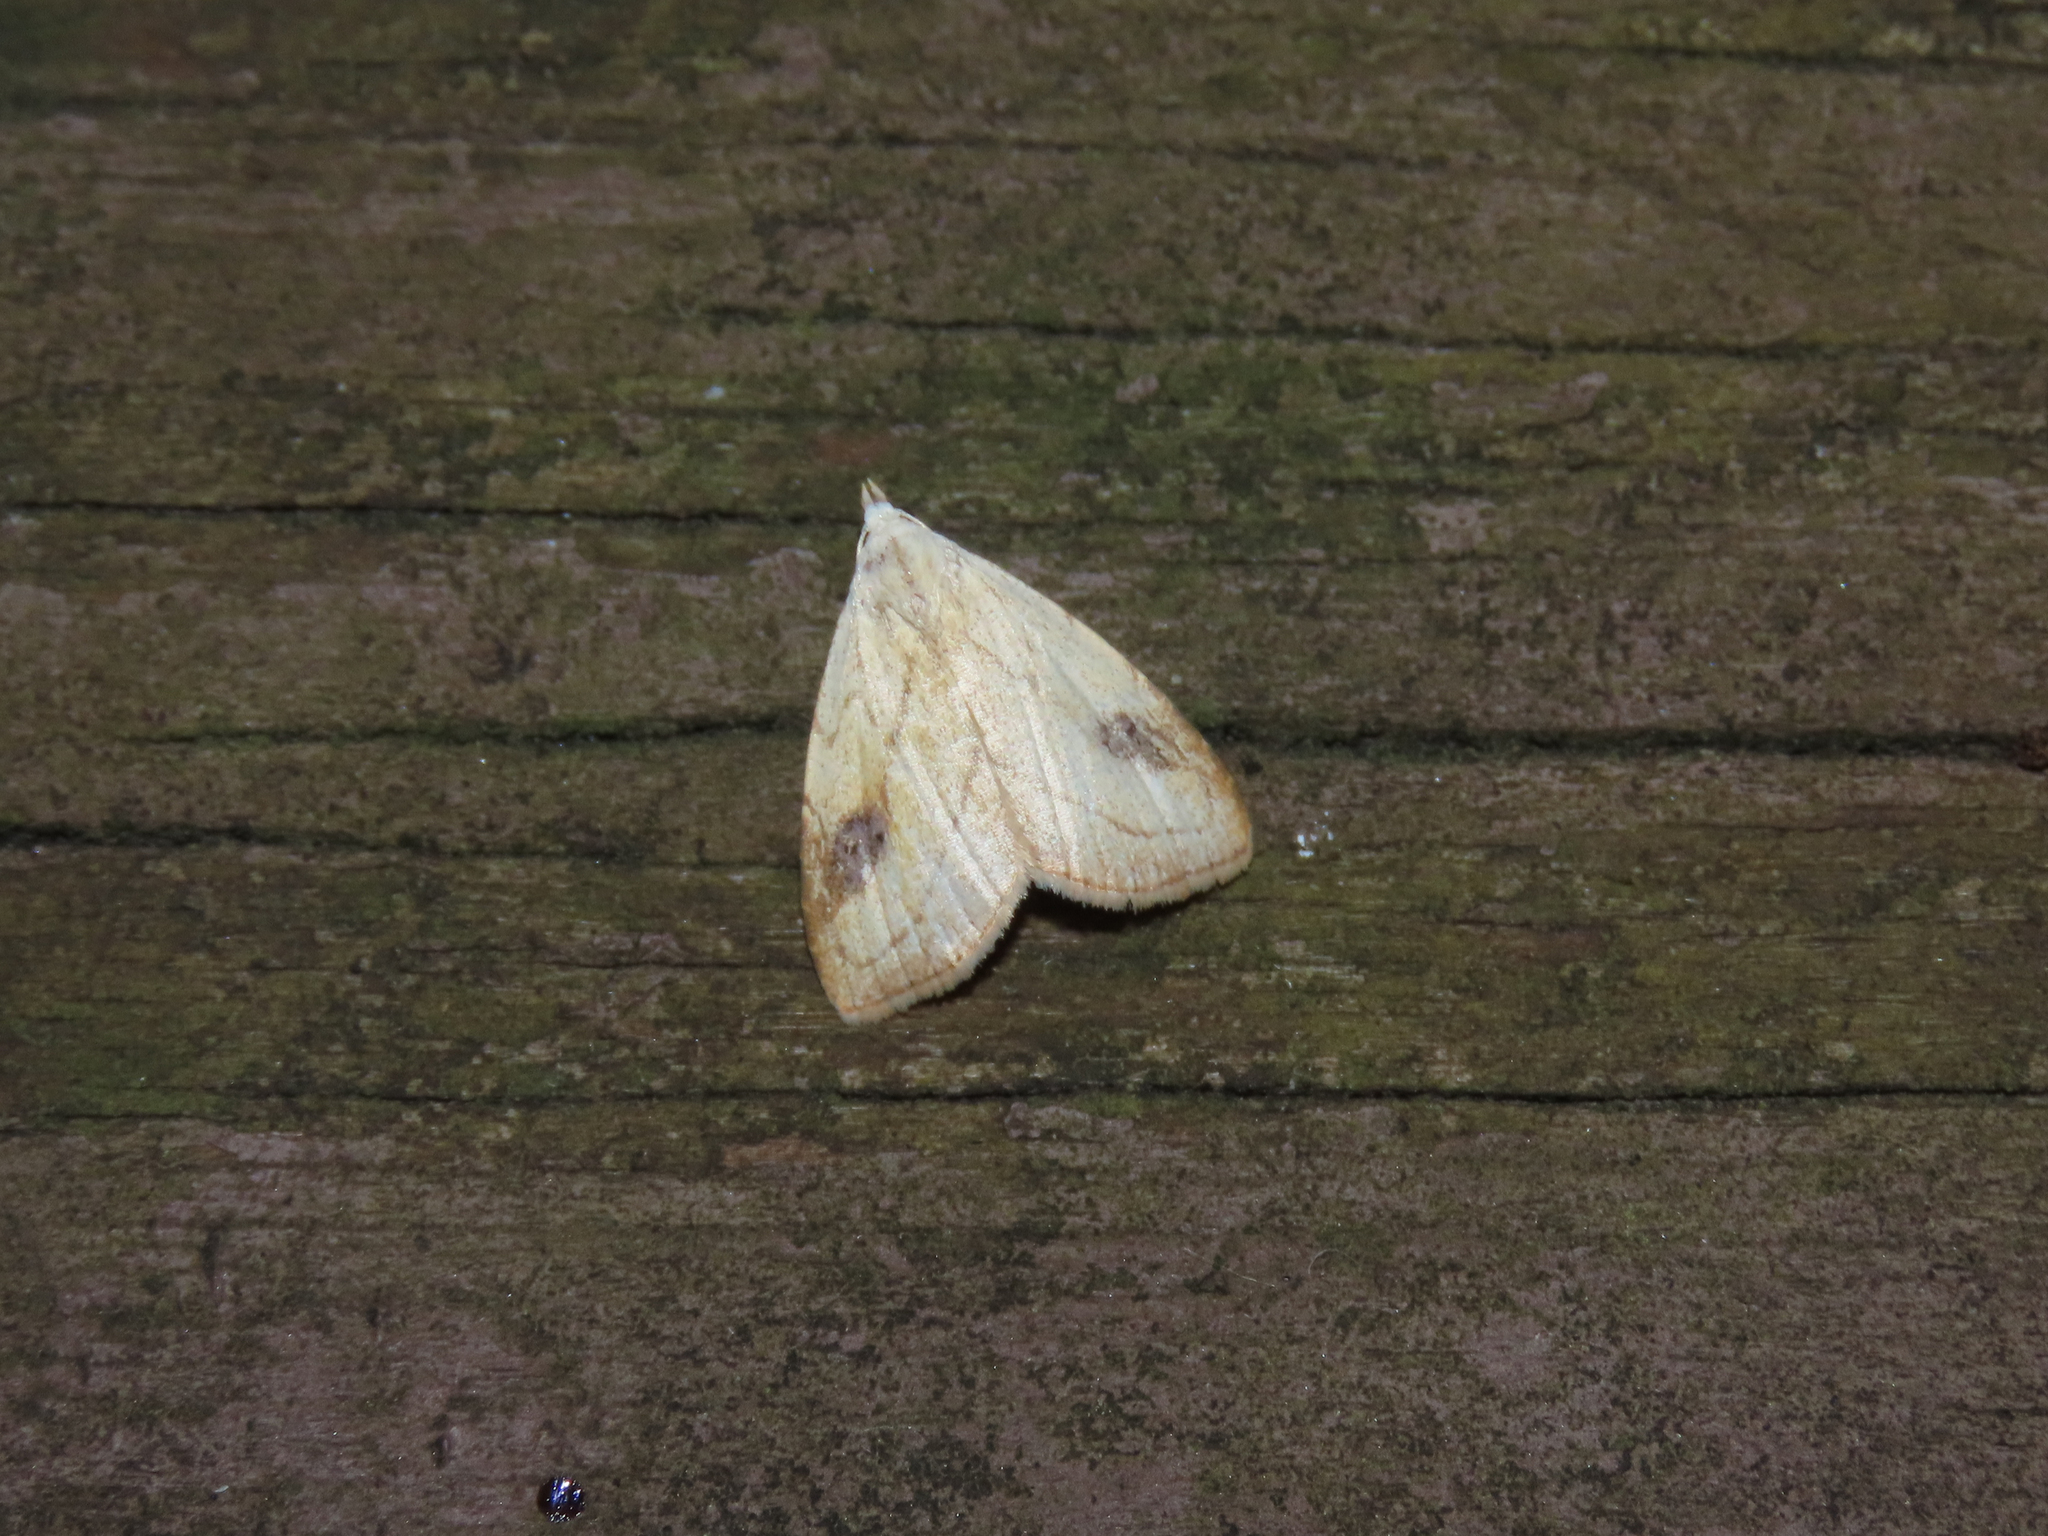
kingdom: Animalia
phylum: Arthropoda
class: Insecta
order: Lepidoptera
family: Erebidae
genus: Rivula
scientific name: Rivula propinqualis
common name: Spotted grass moth
